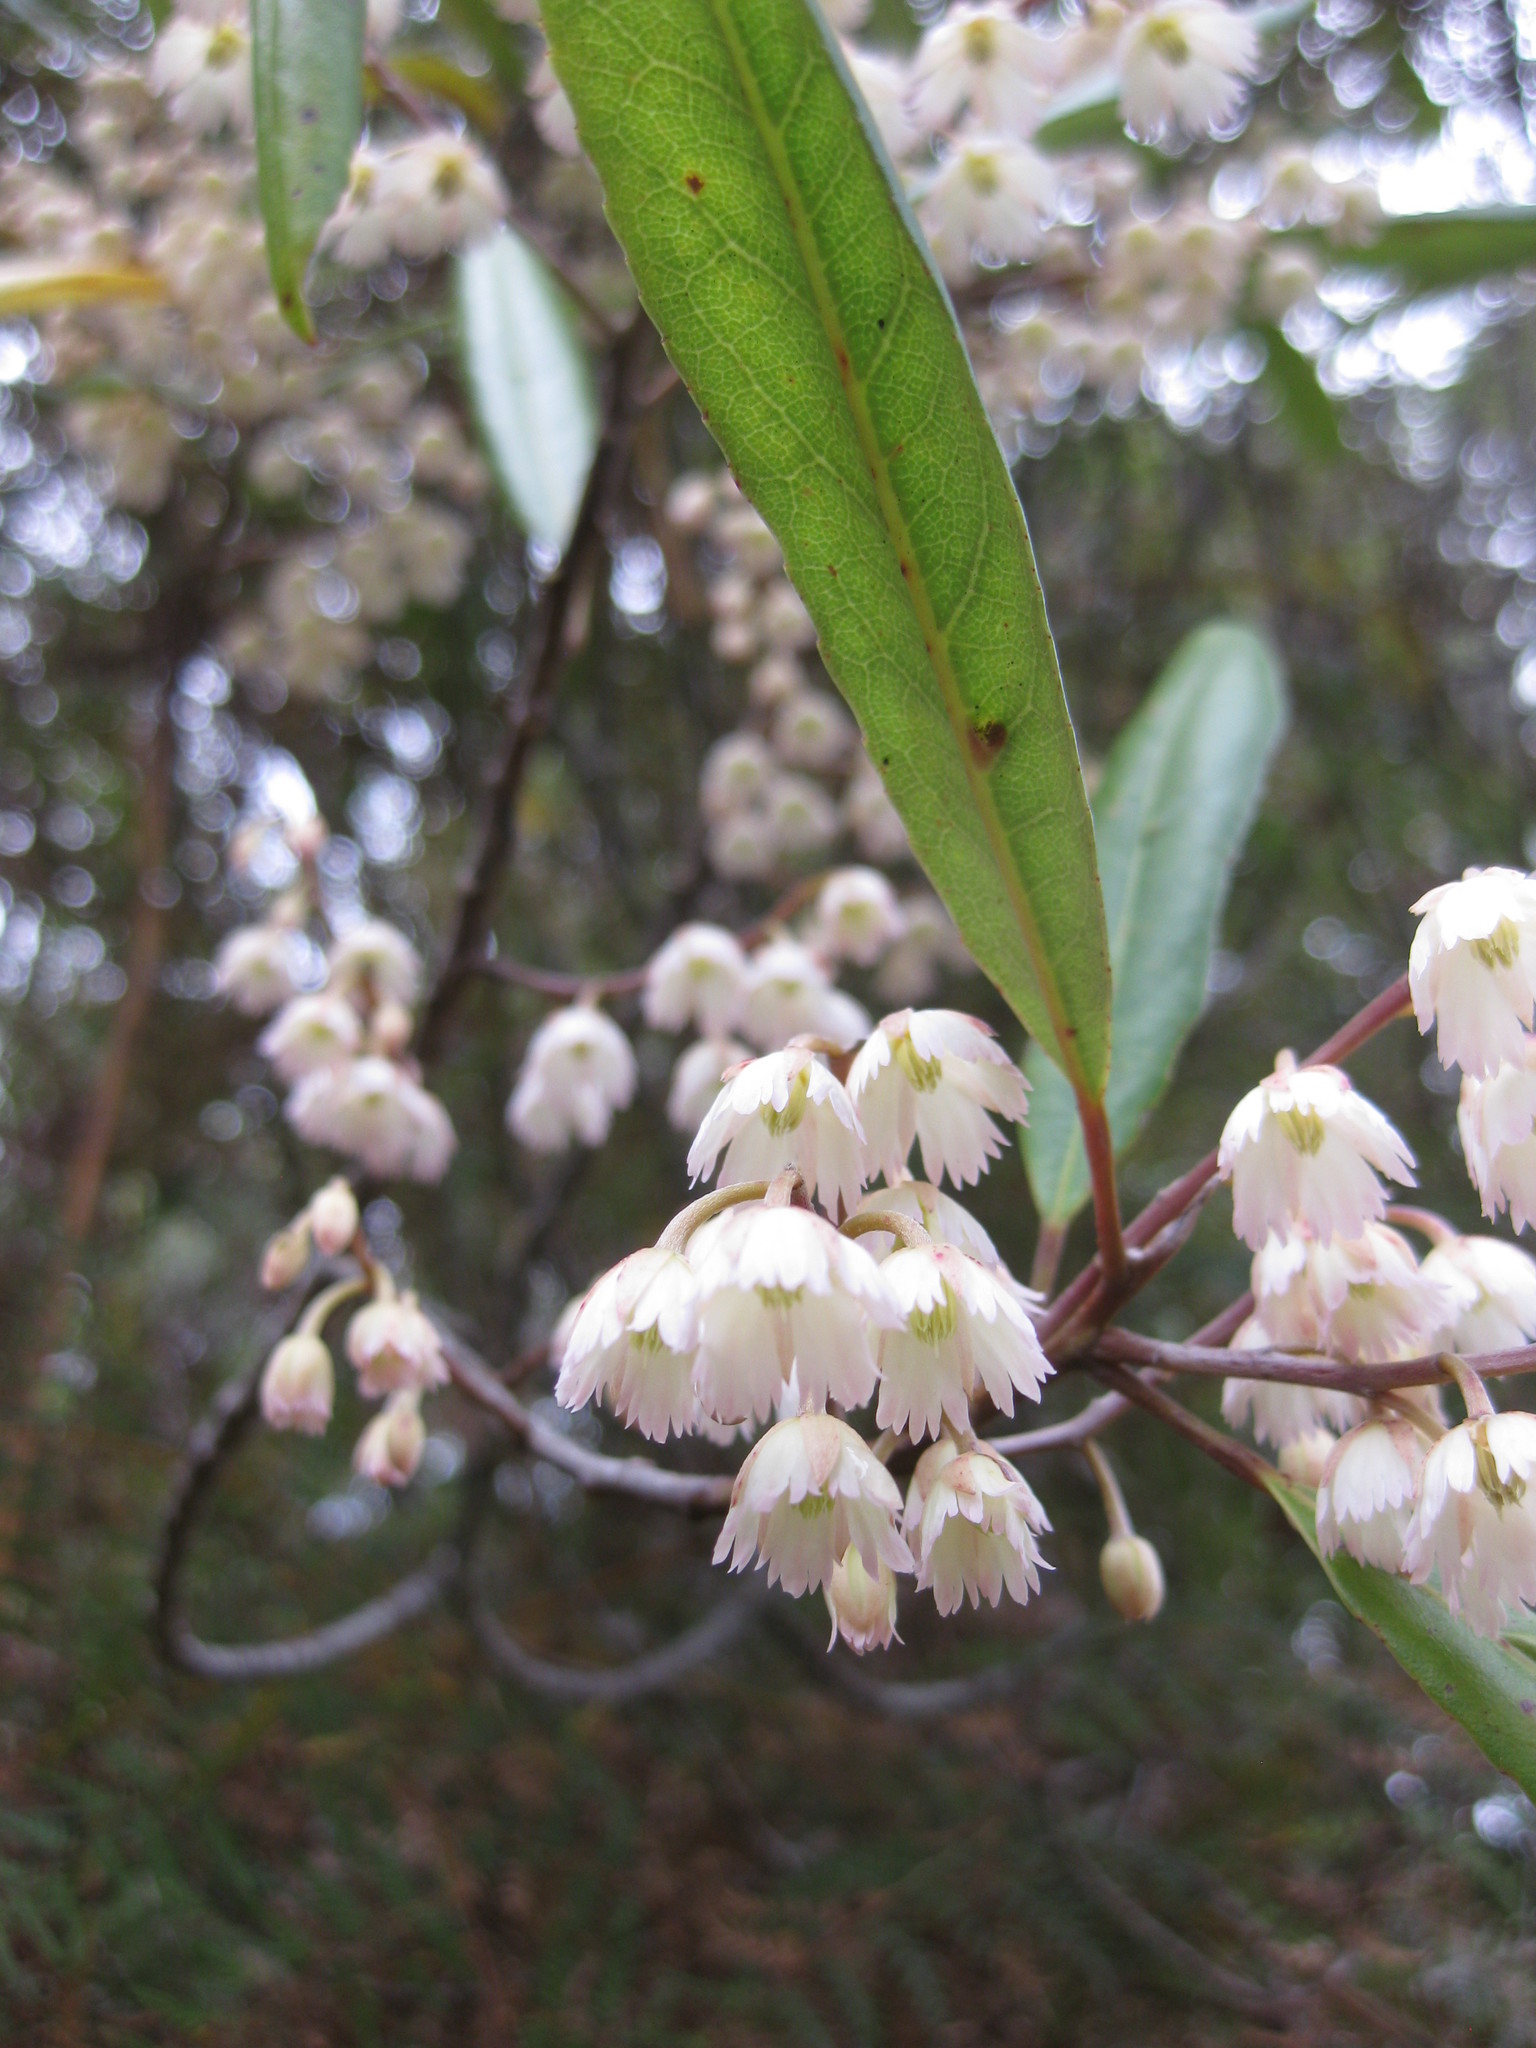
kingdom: Plantae
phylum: Tracheophyta
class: Magnoliopsida
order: Oxalidales
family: Elaeocarpaceae
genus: Elaeocarpus
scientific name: Elaeocarpus dentatus
